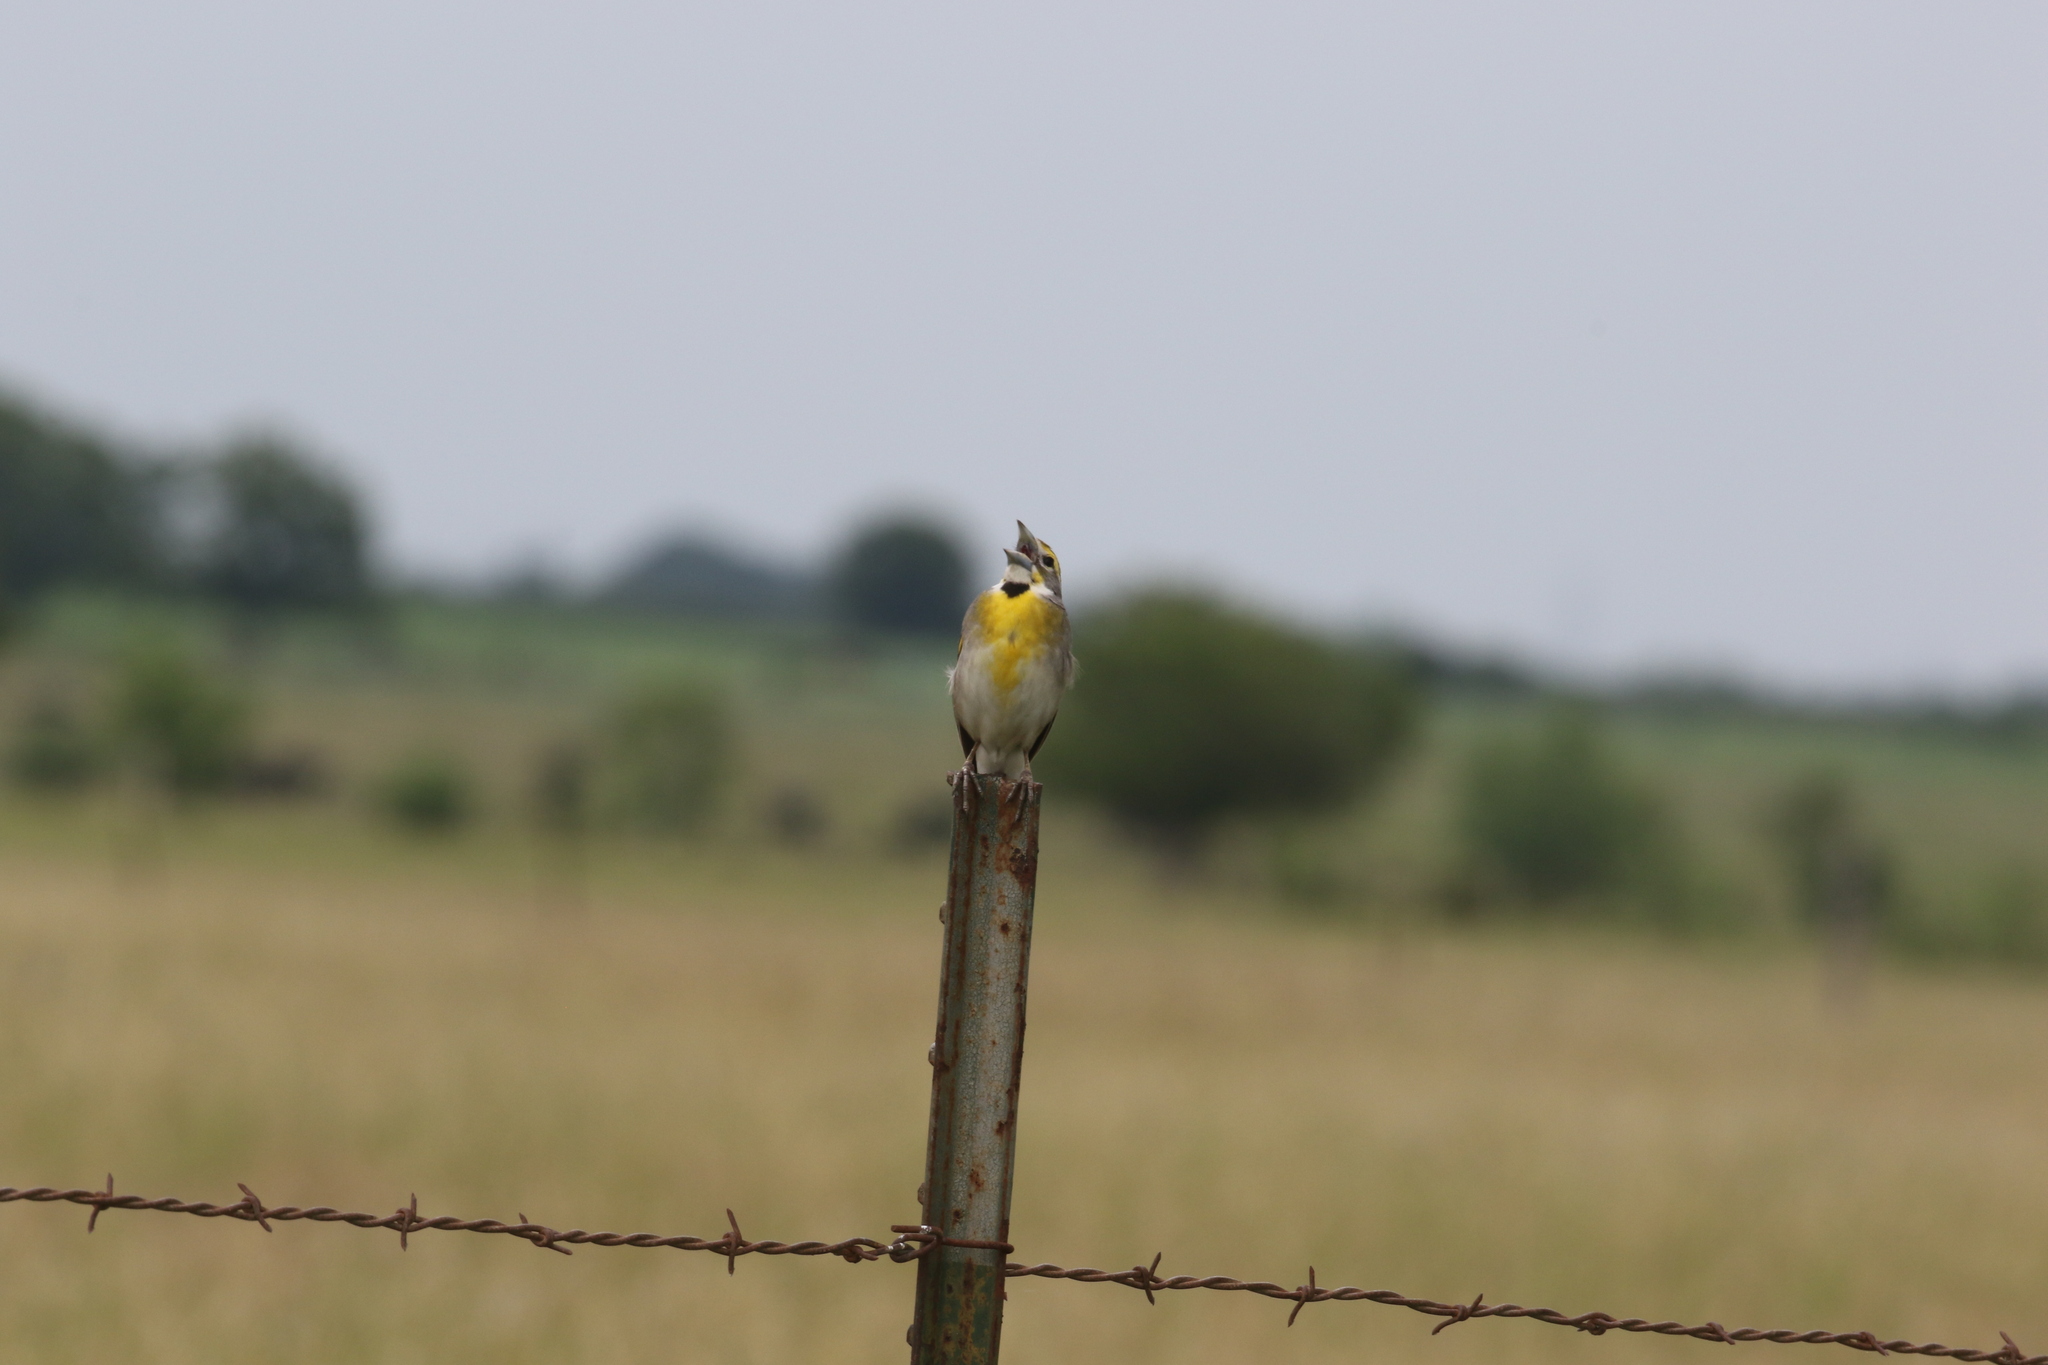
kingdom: Animalia
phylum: Chordata
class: Aves
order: Passeriformes
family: Cardinalidae
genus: Spiza
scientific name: Spiza americana
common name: Dickcissel
